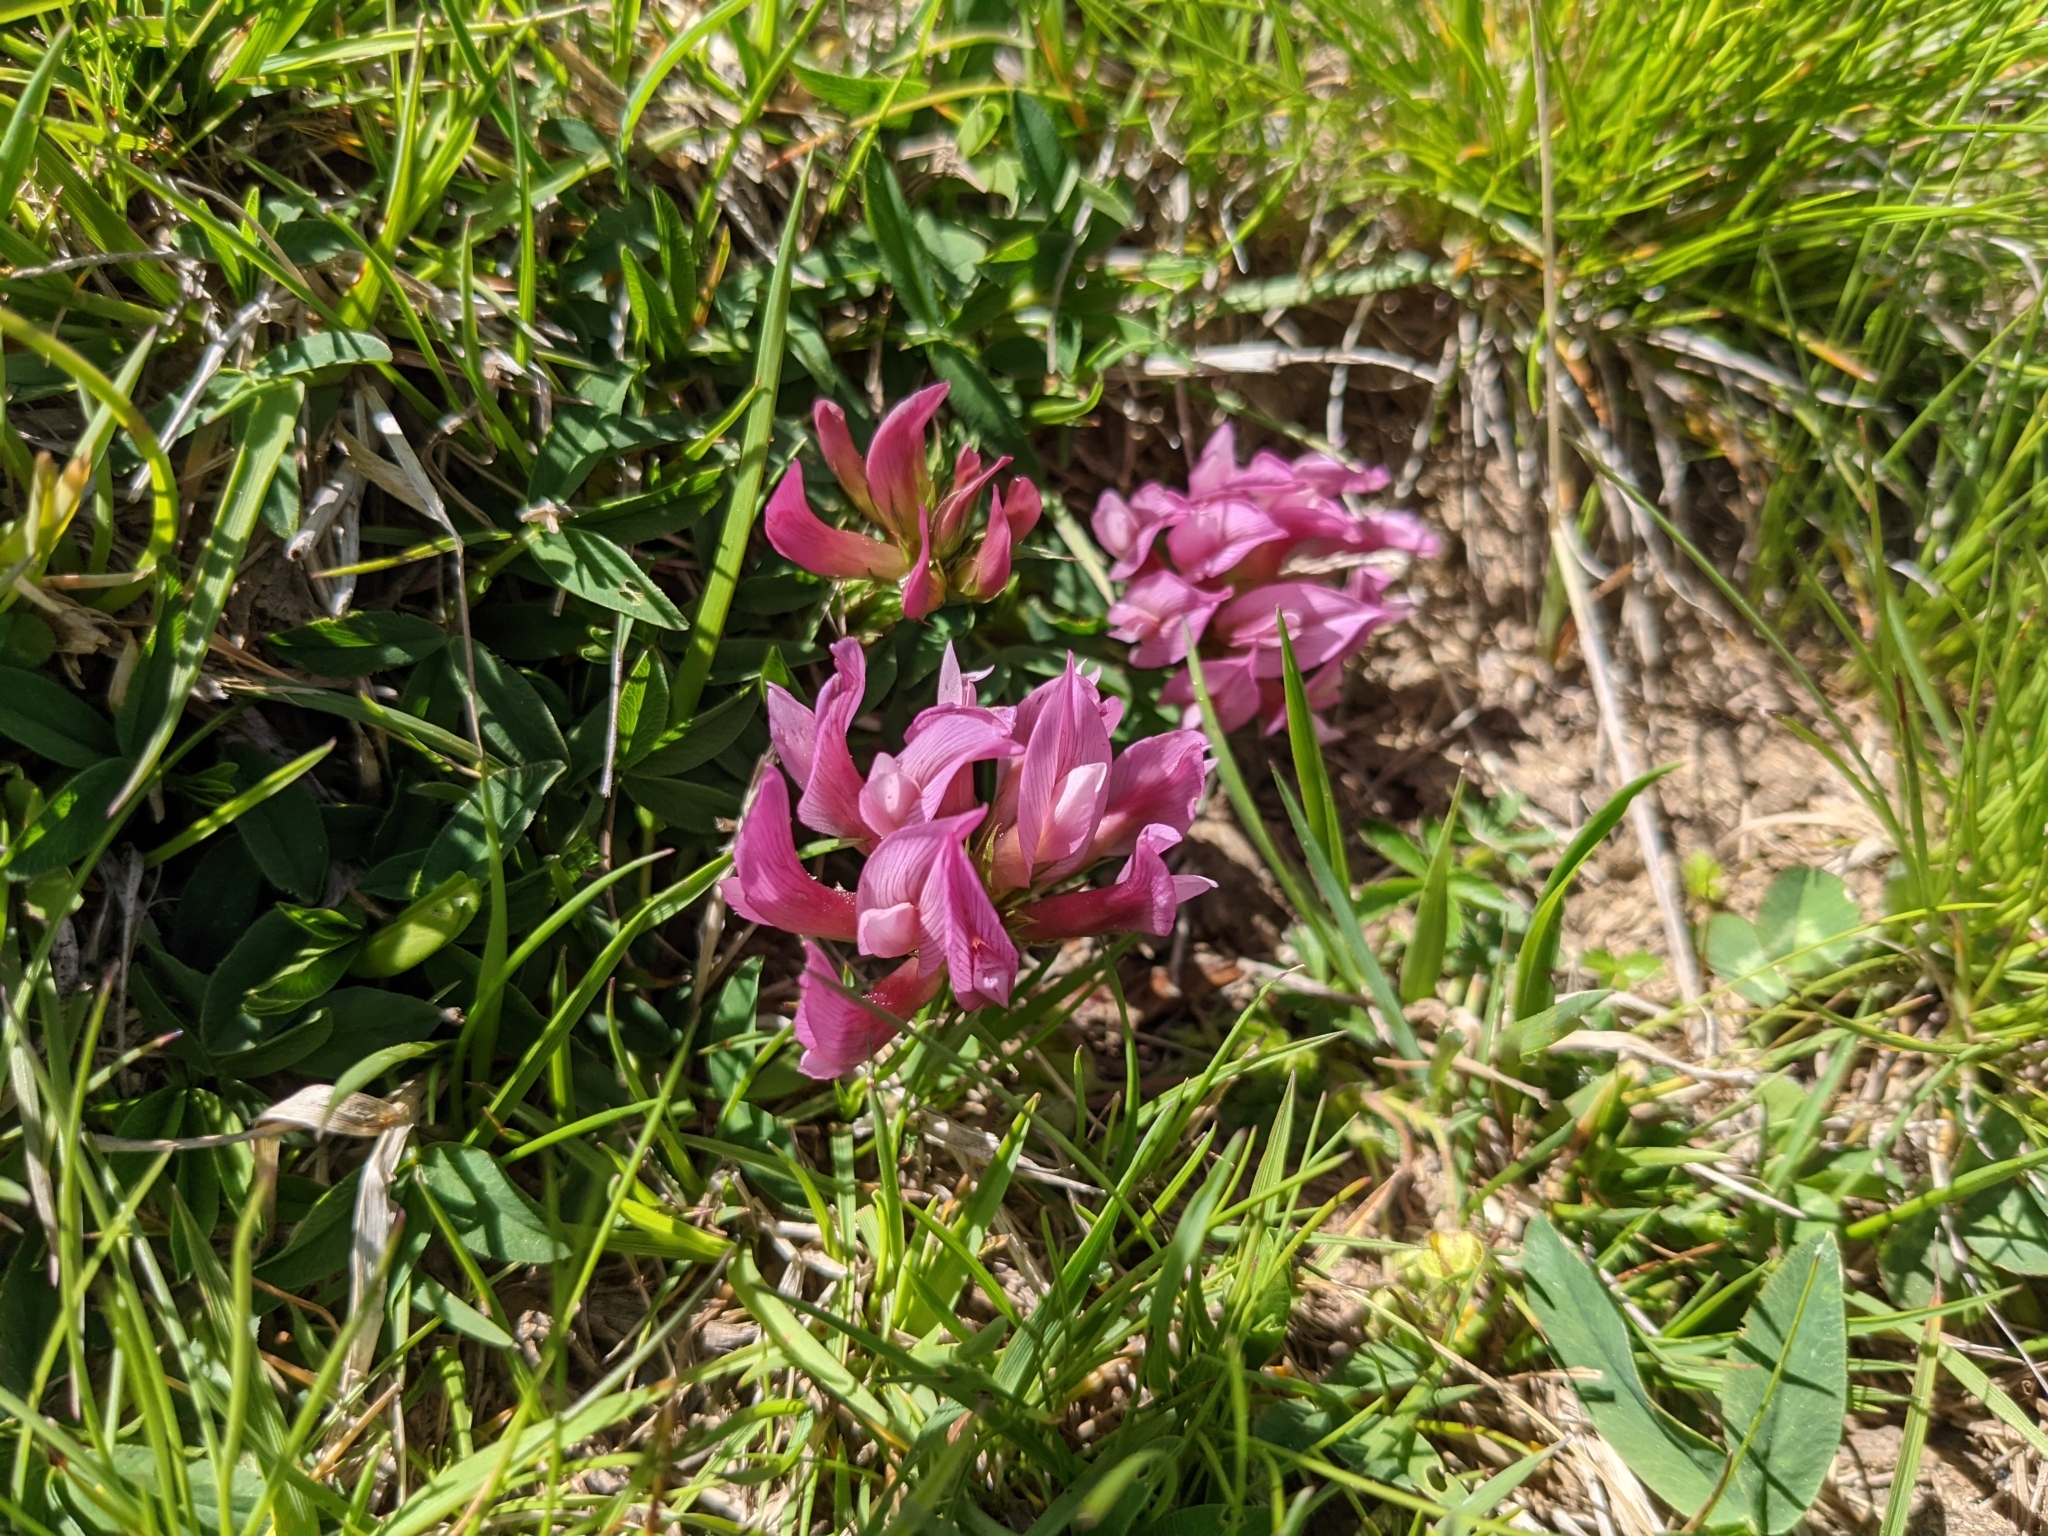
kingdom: Plantae
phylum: Tracheophyta
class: Magnoliopsida
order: Fabales
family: Fabaceae
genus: Trifolium
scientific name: Trifolium alpinum
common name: Alpine clover
